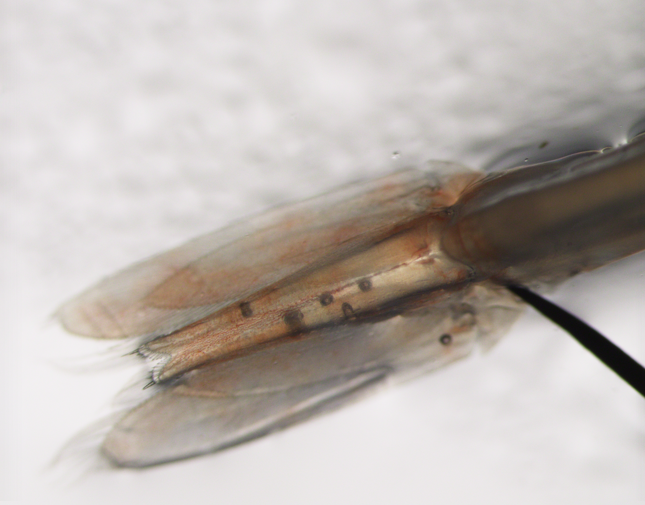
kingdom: Animalia
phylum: Arthropoda
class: Malacostraca
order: Decapoda
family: Pasiphaeidae
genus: Pasiphaea
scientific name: Pasiphaea multidentata
